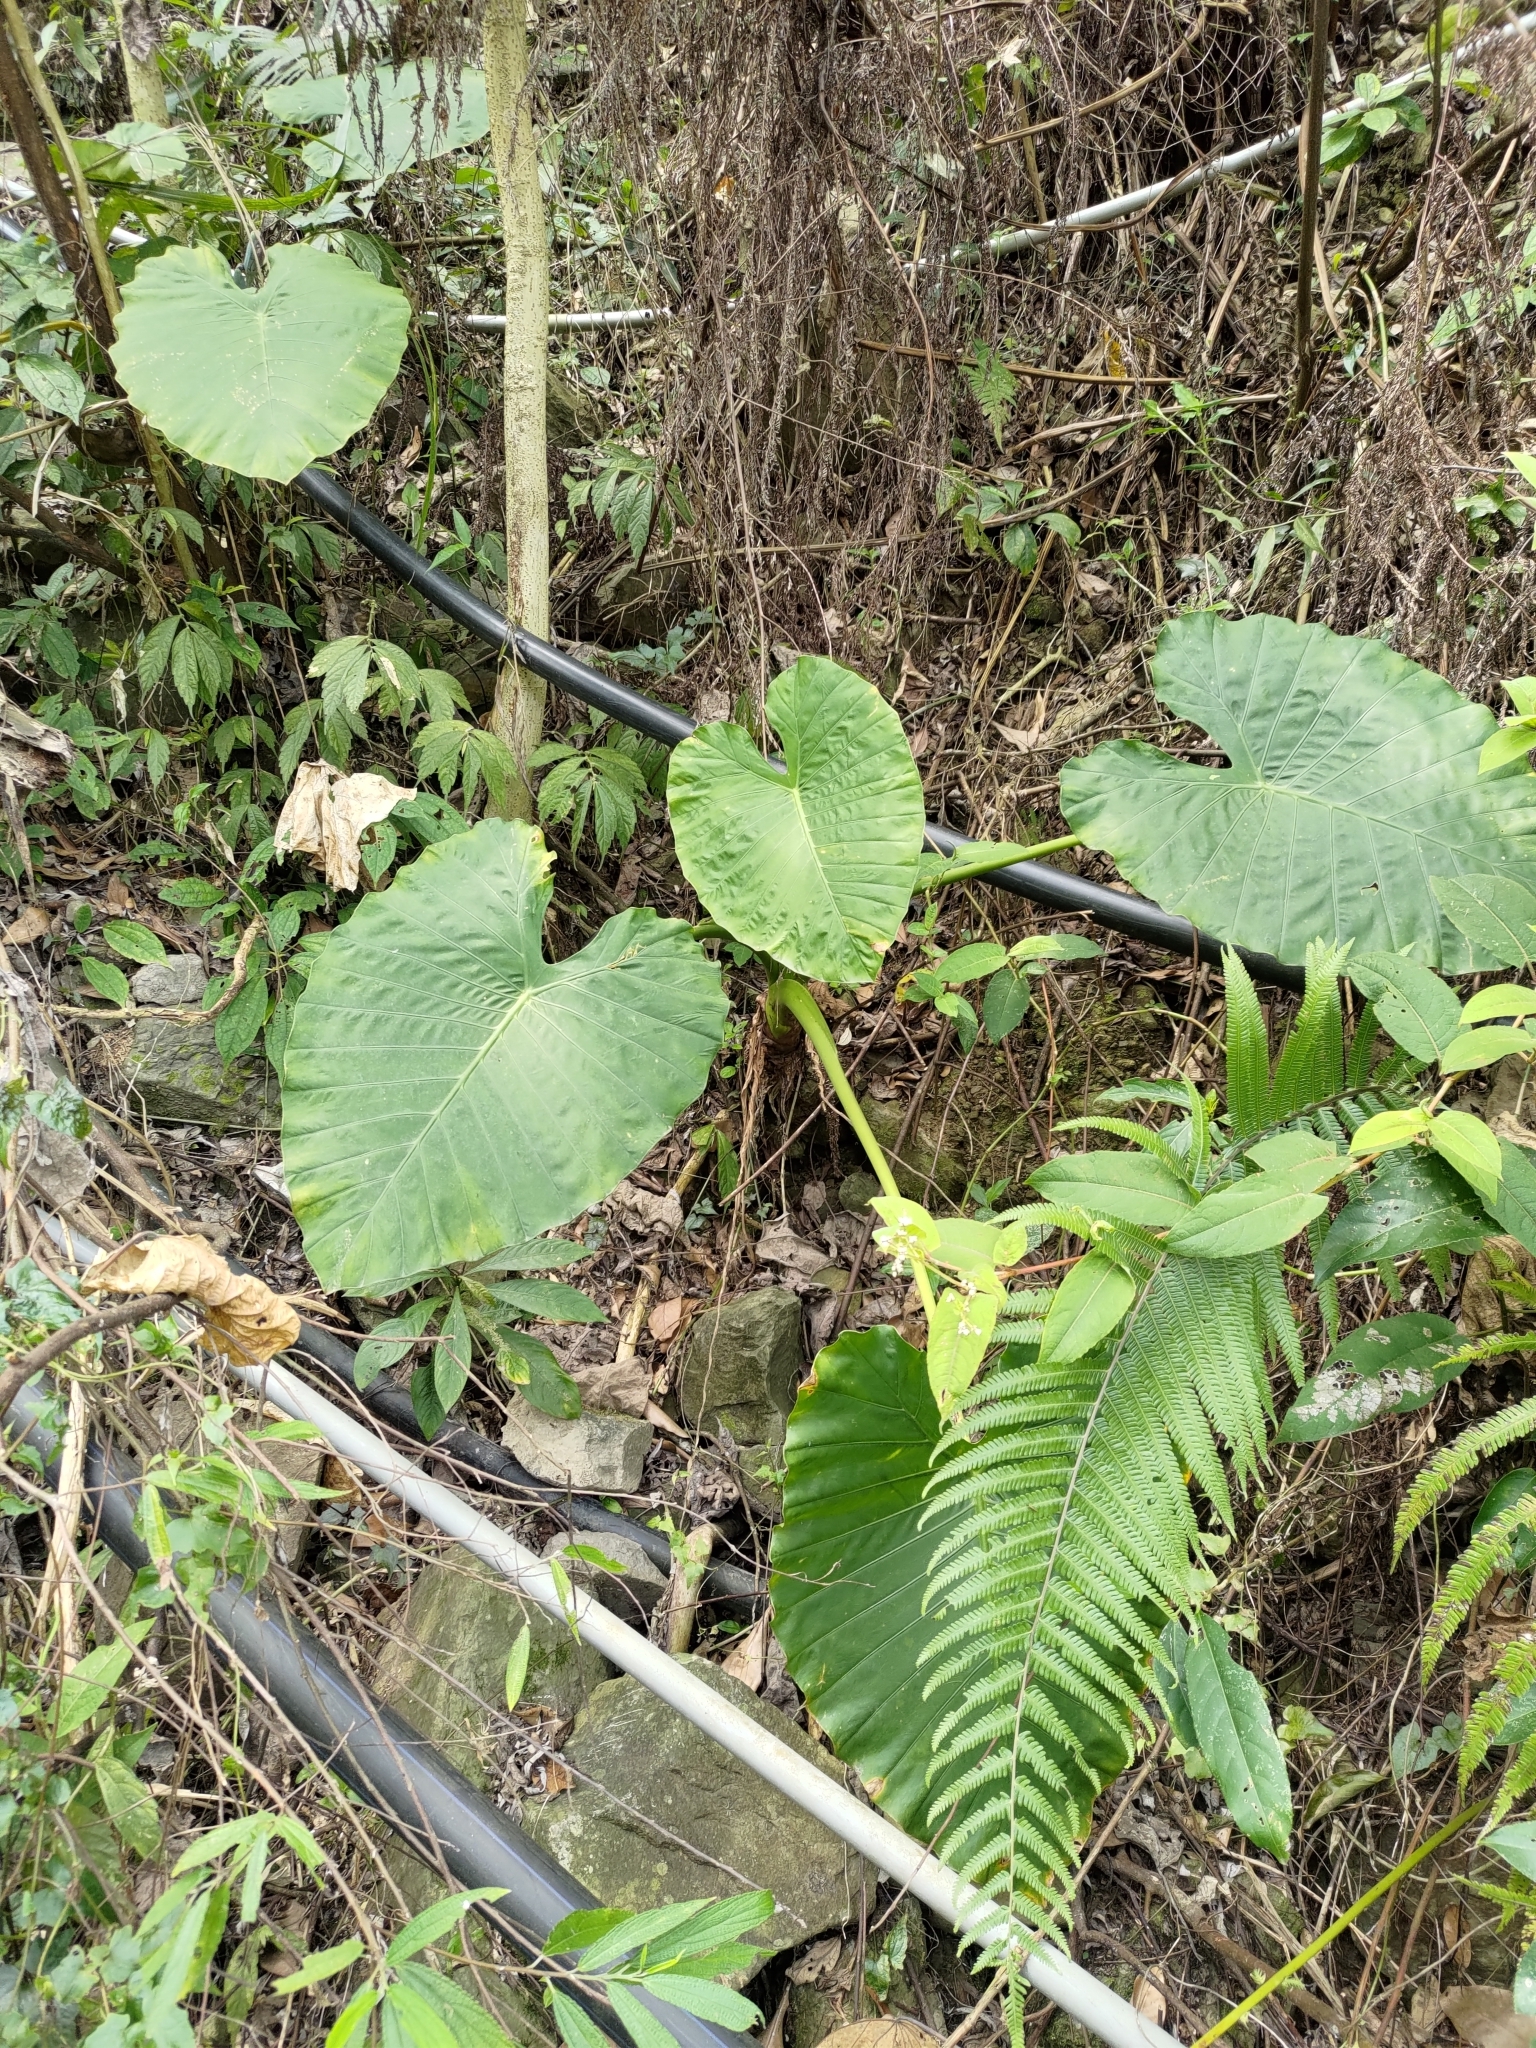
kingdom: Plantae
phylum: Tracheophyta
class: Liliopsida
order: Alismatales
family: Araceae
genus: Alocasia
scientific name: Alocasia odora
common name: Asian taro
